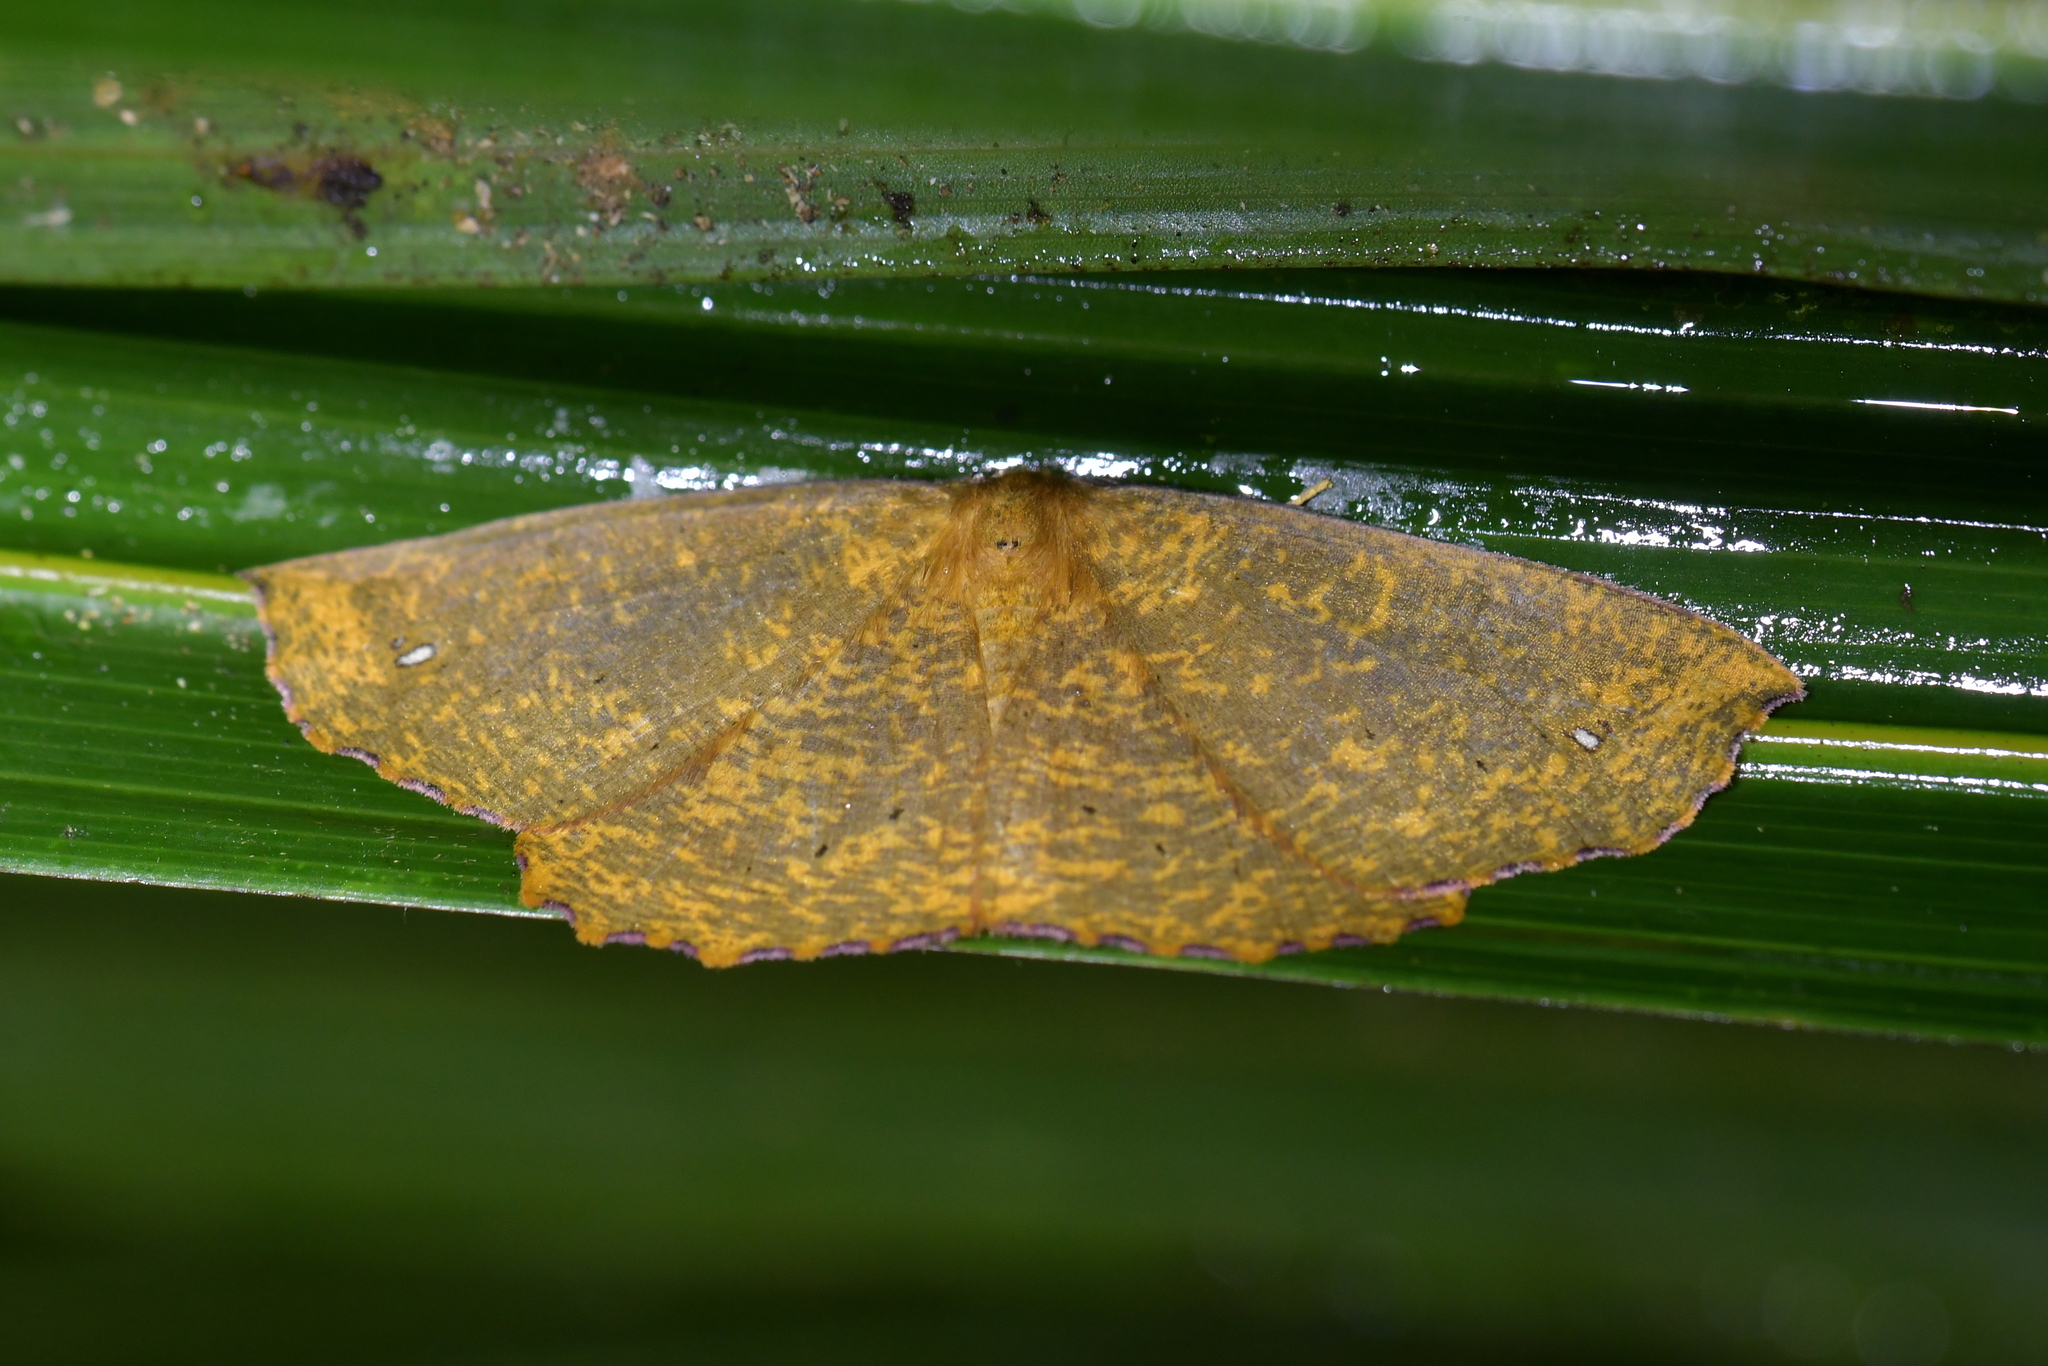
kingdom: Animalia
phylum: Arthropoda
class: Insecta
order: Lepidoptera
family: Geometridae
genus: Xyridacma
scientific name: Xyridacma alectoraria
